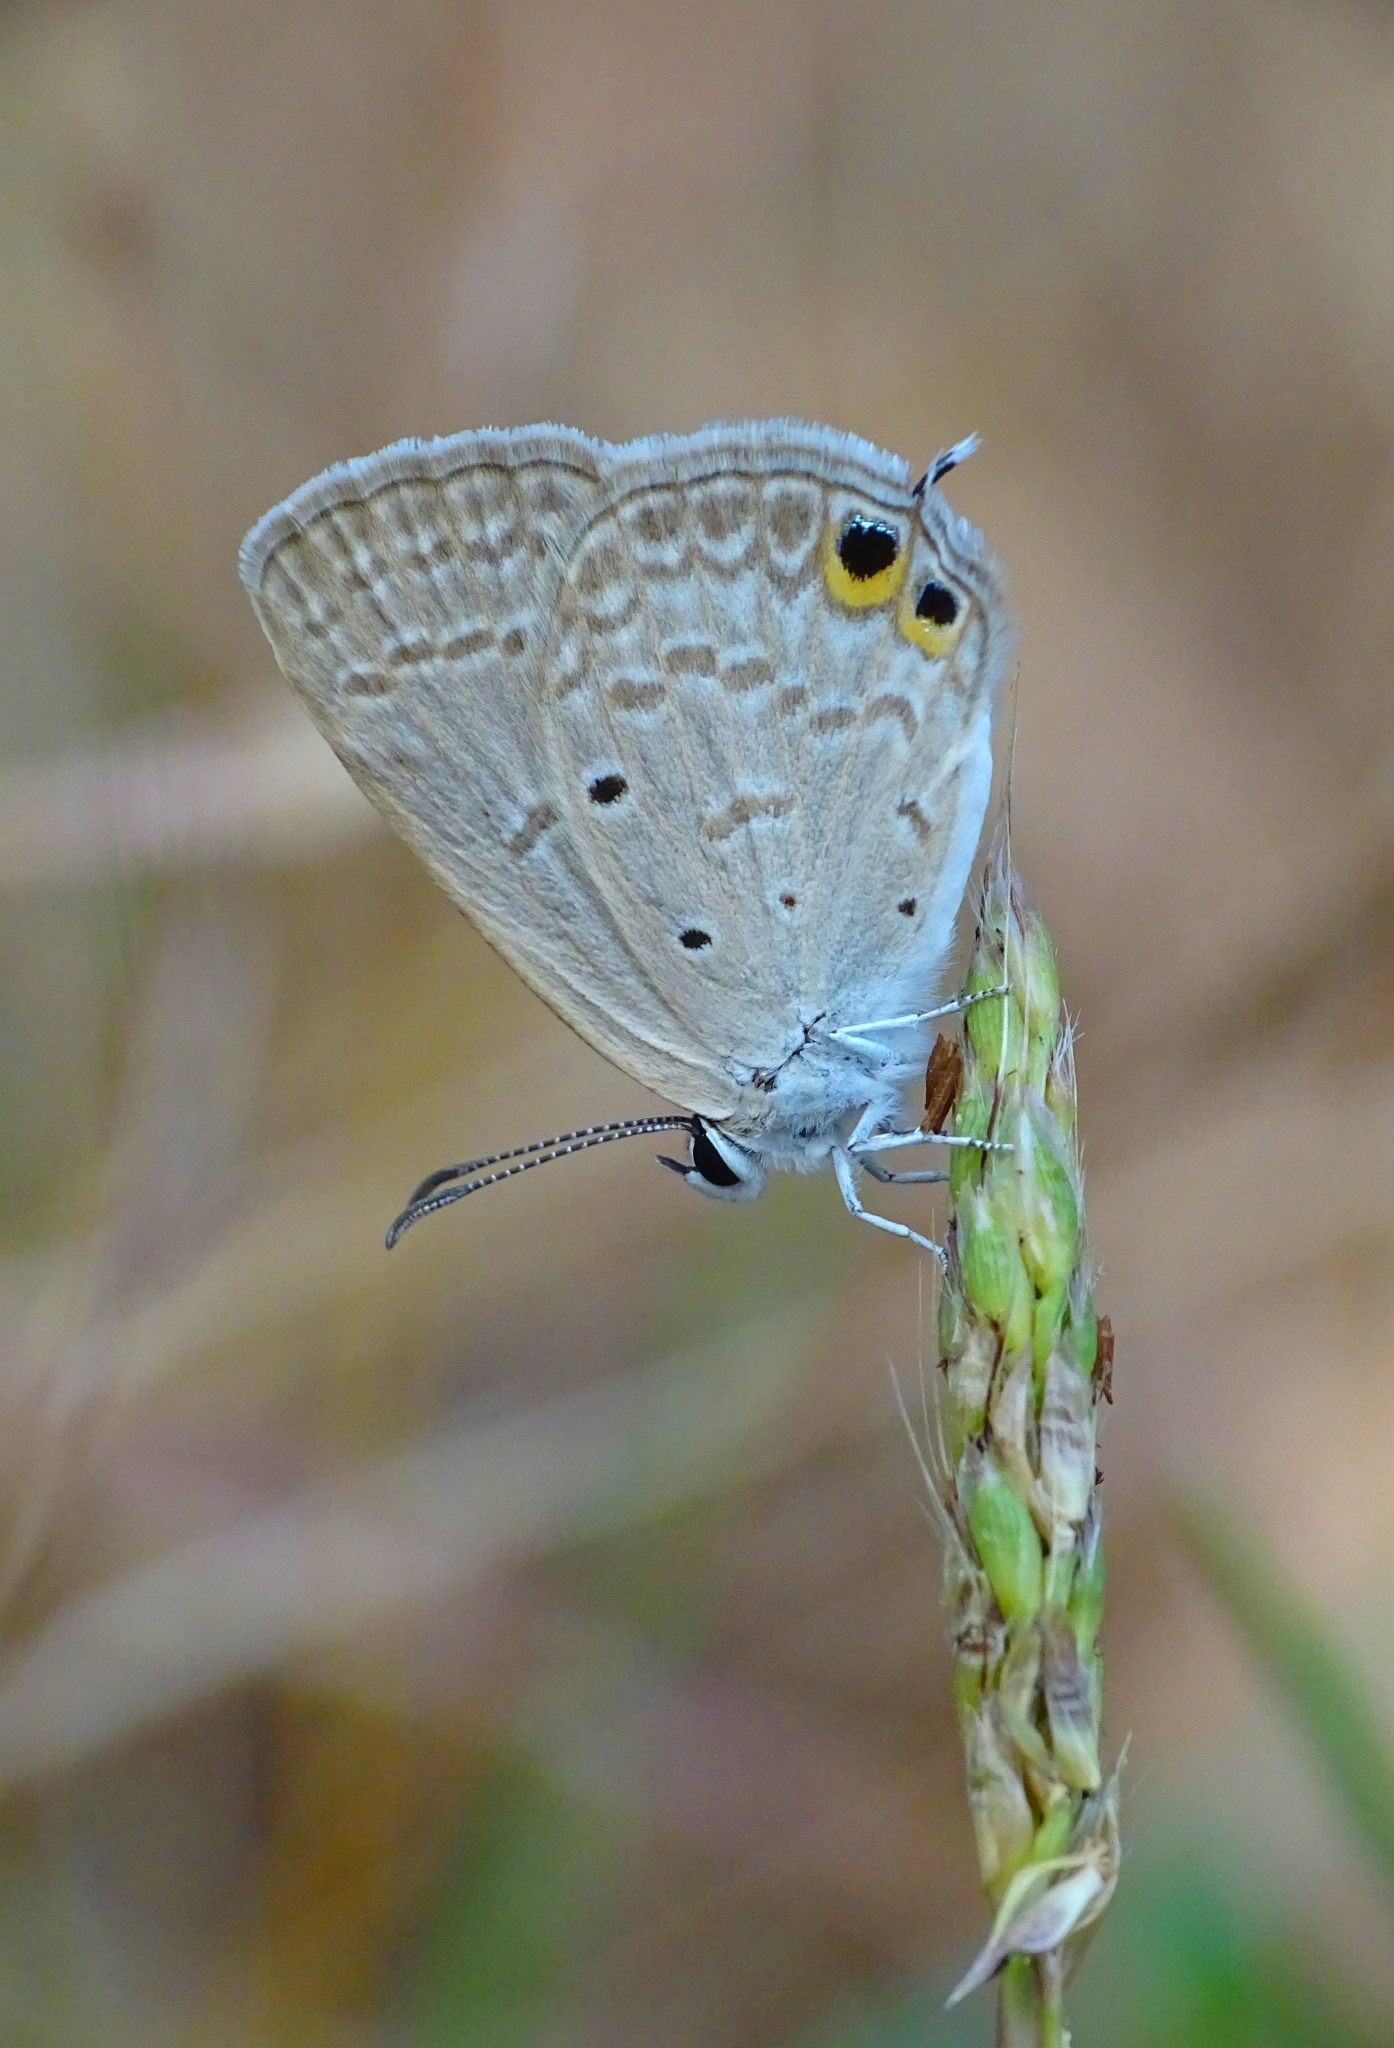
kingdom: Animalia
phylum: Arthropoda
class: Insecta
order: Lepidoptera
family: Lycaenidae
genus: Euchrysops
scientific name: Euchrysops cnejus
